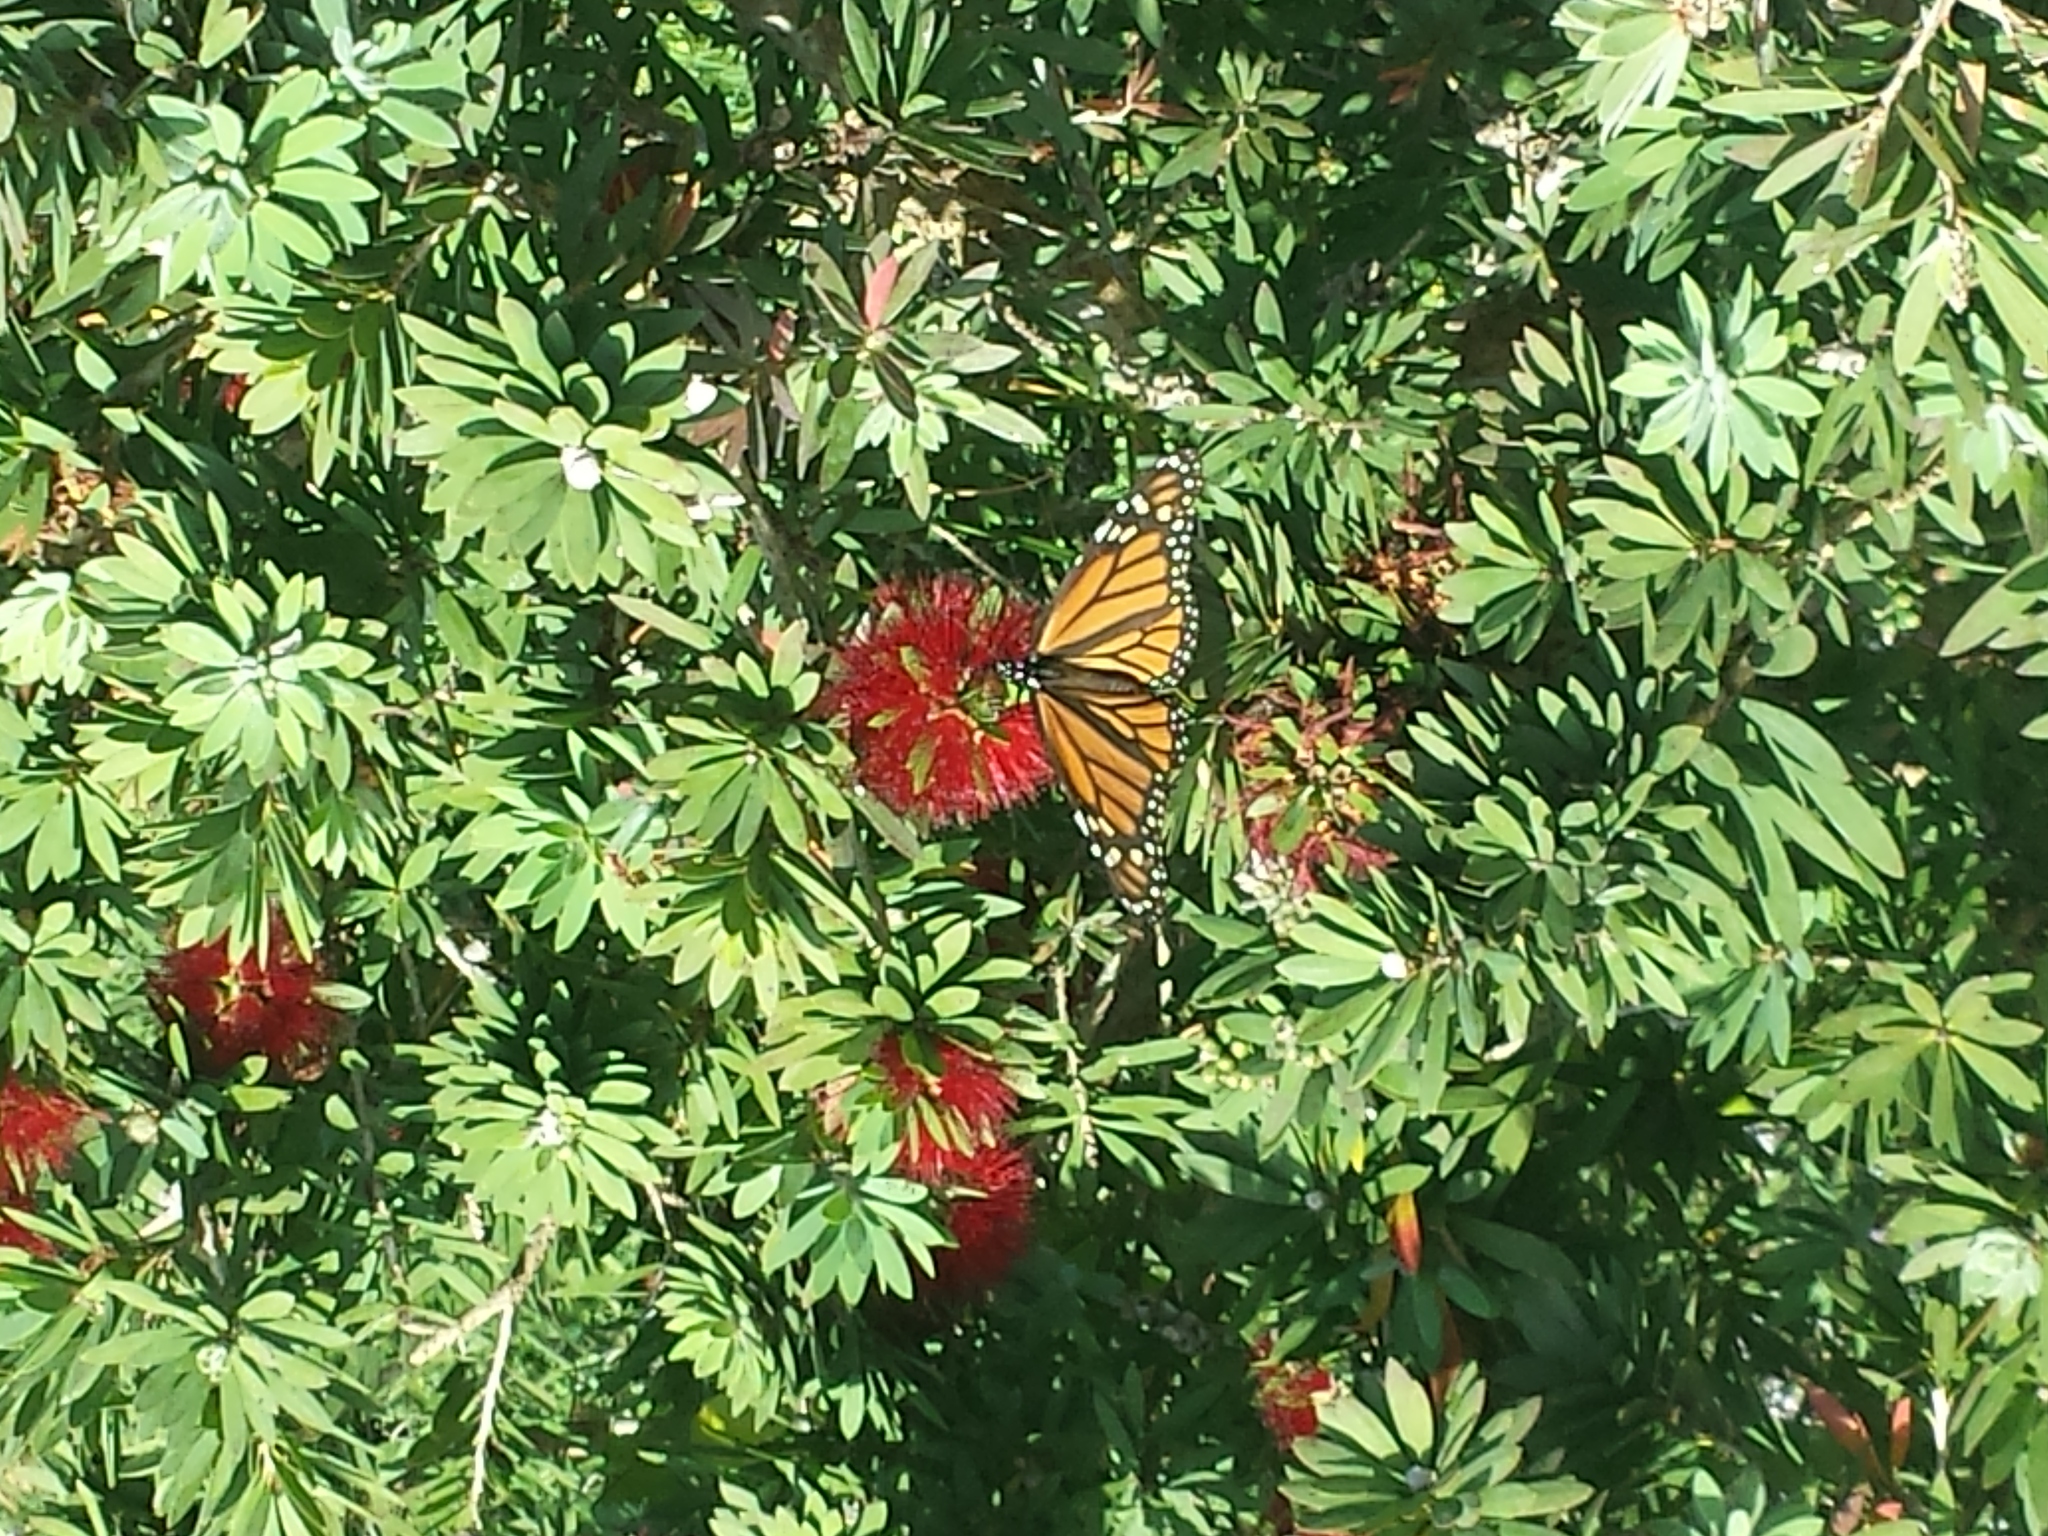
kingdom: Animalia
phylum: Arthropoda
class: Insecta
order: Lepidoptera
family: Nymphalidae
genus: Danaus
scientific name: Danaus plexippus
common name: Monarch
